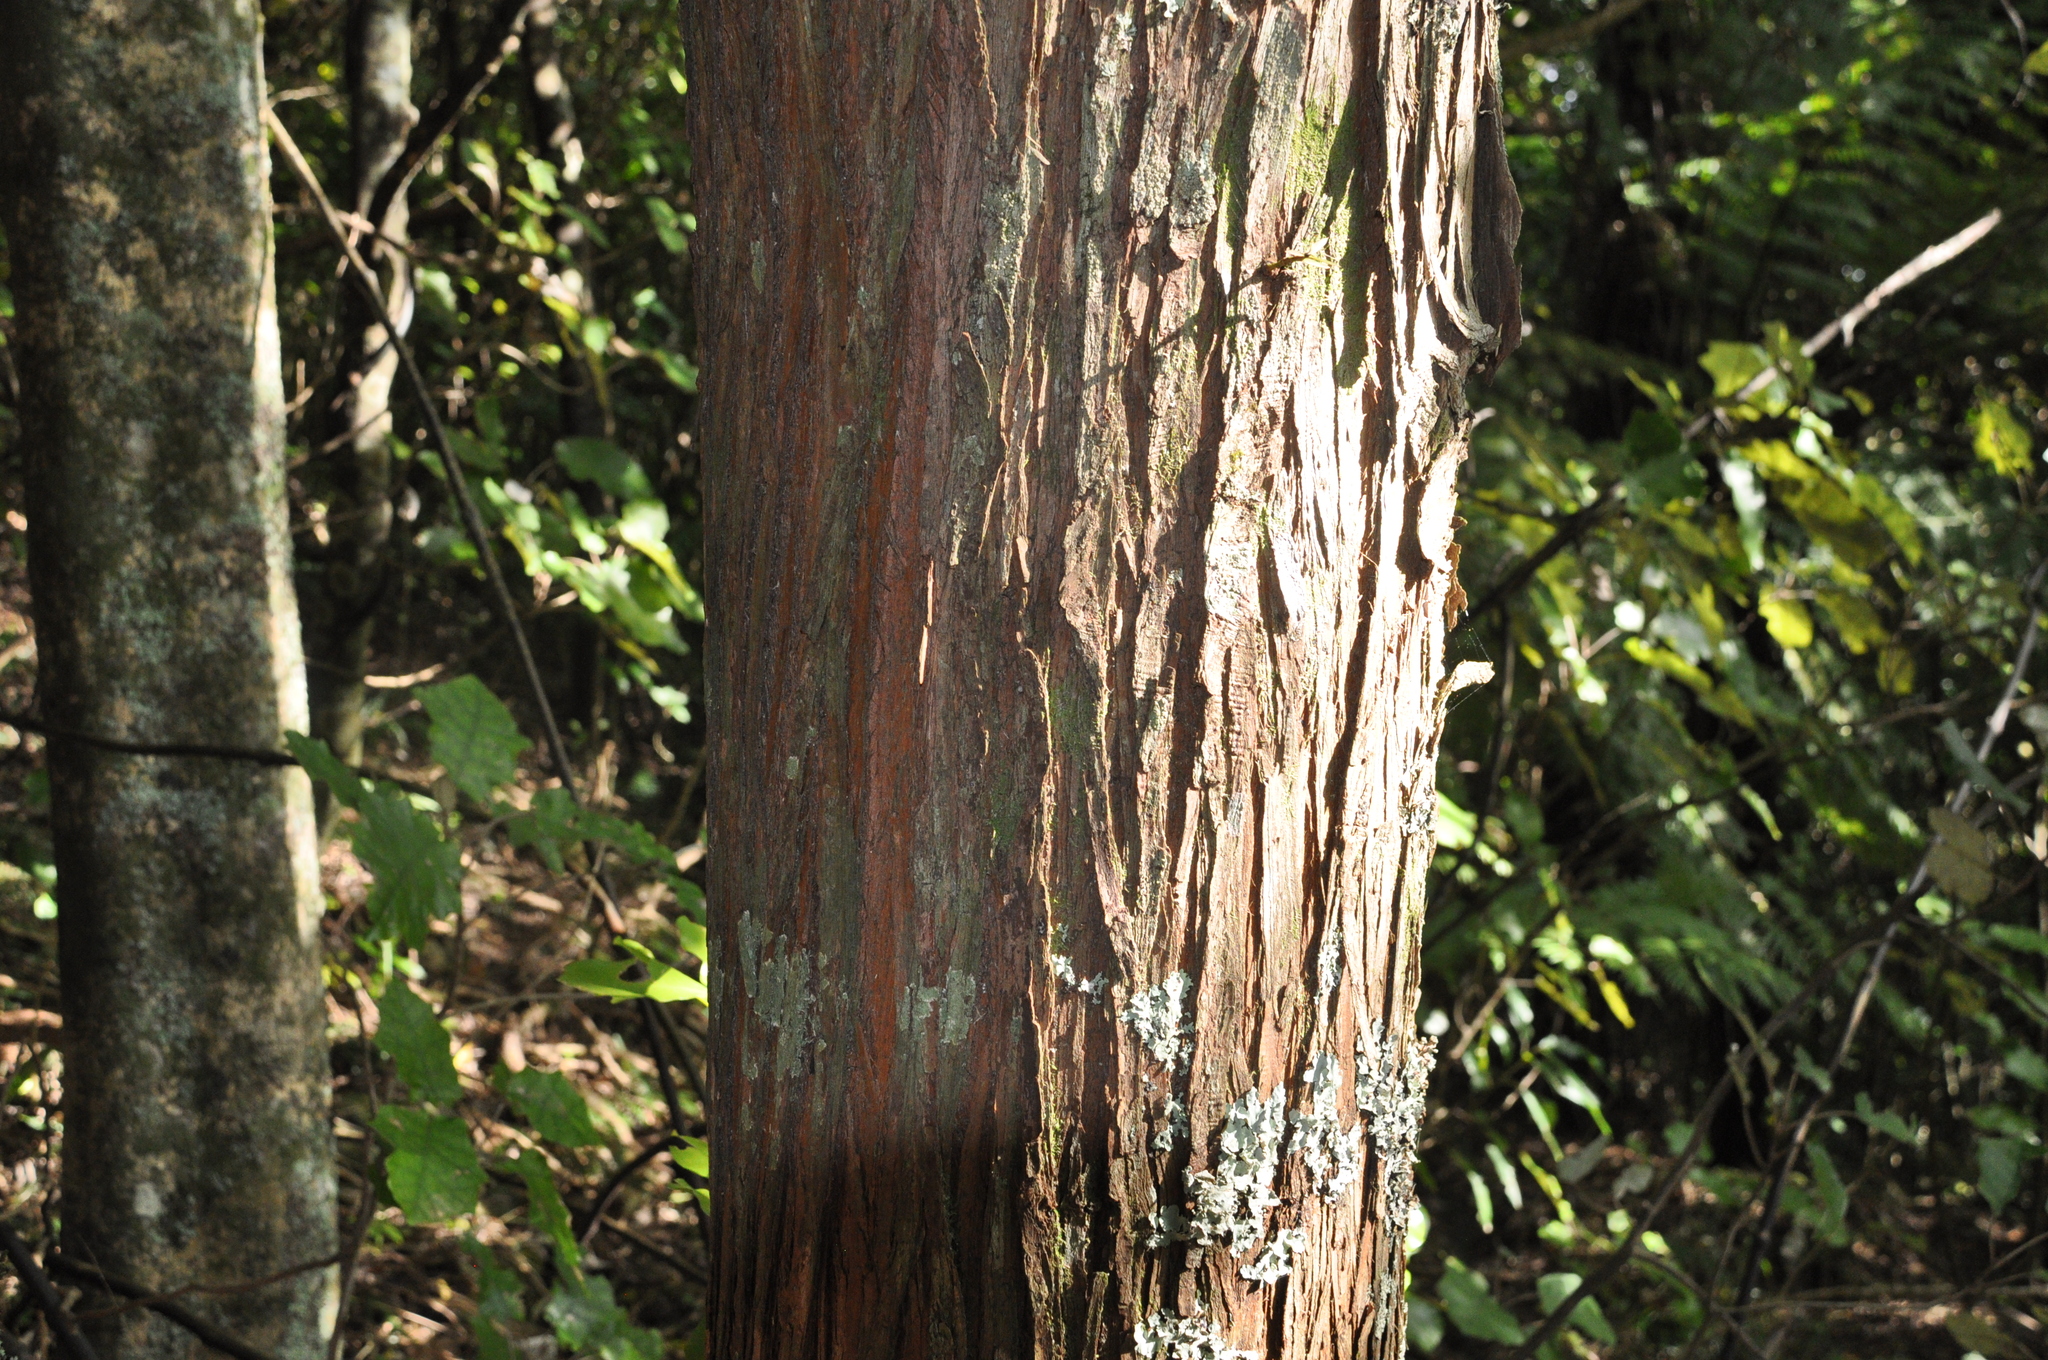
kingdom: Plantae
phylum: Tracheophyta
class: Pinopsida
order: Pinales
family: Podocarpaceae
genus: Podocarpus
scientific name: Podocarpus totara
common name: Totara
